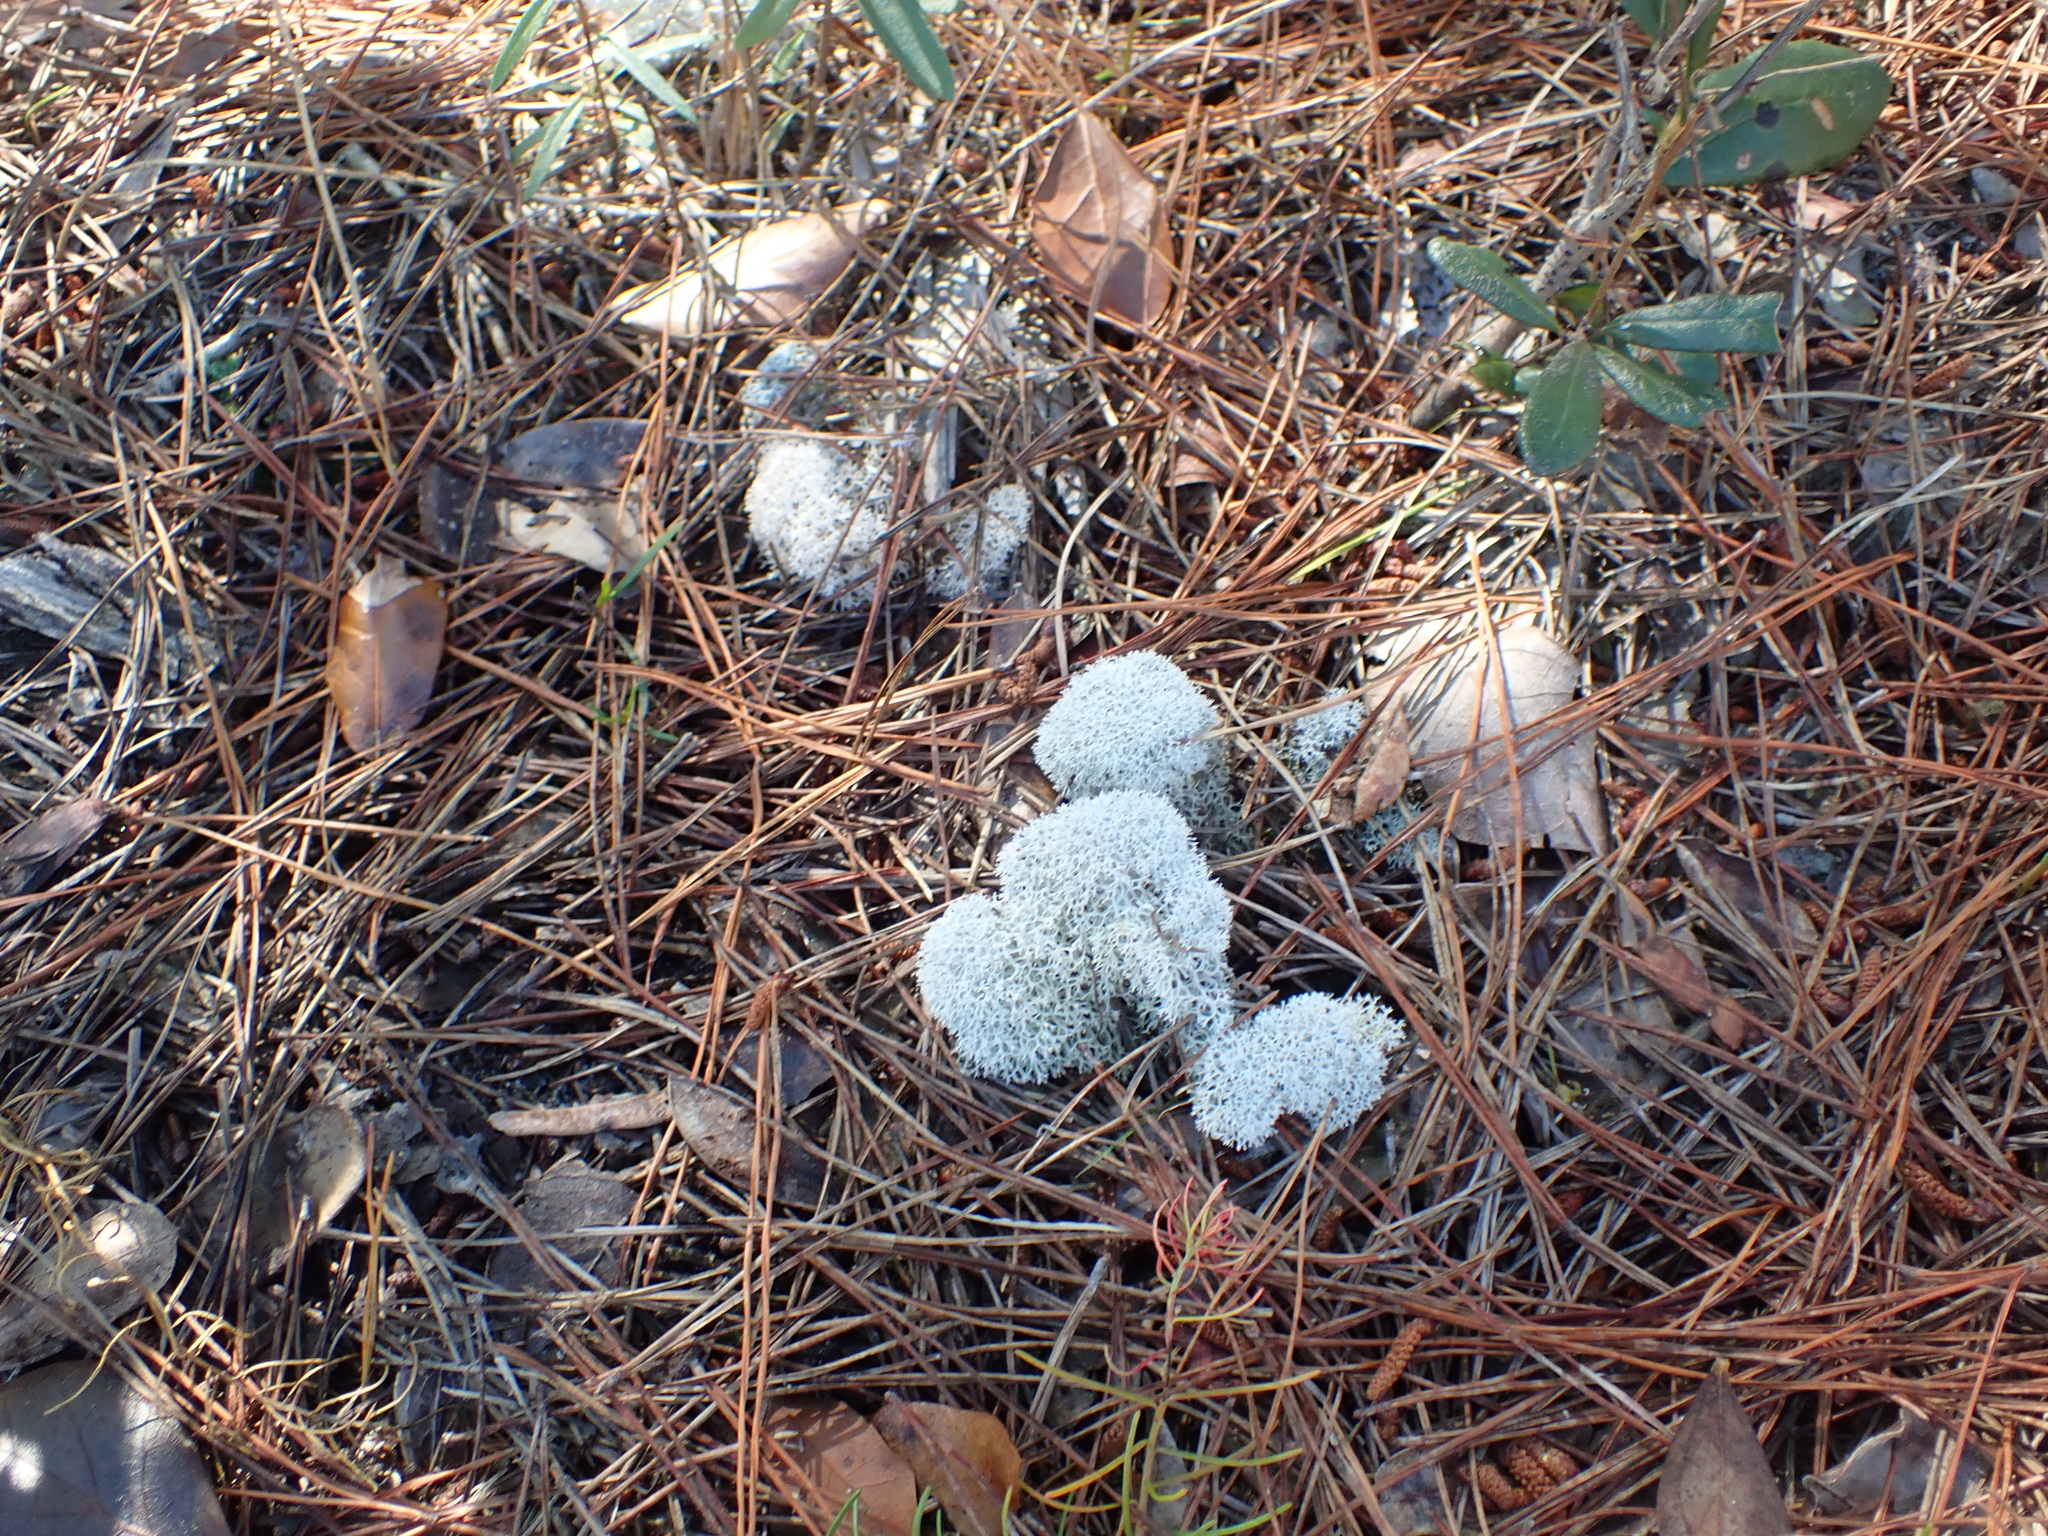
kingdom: Fungi
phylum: Ascomycota
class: Lecanoromycetes
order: Lecanorales
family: Cladoniaceae
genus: Cladonia
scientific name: Cladonia evansii
